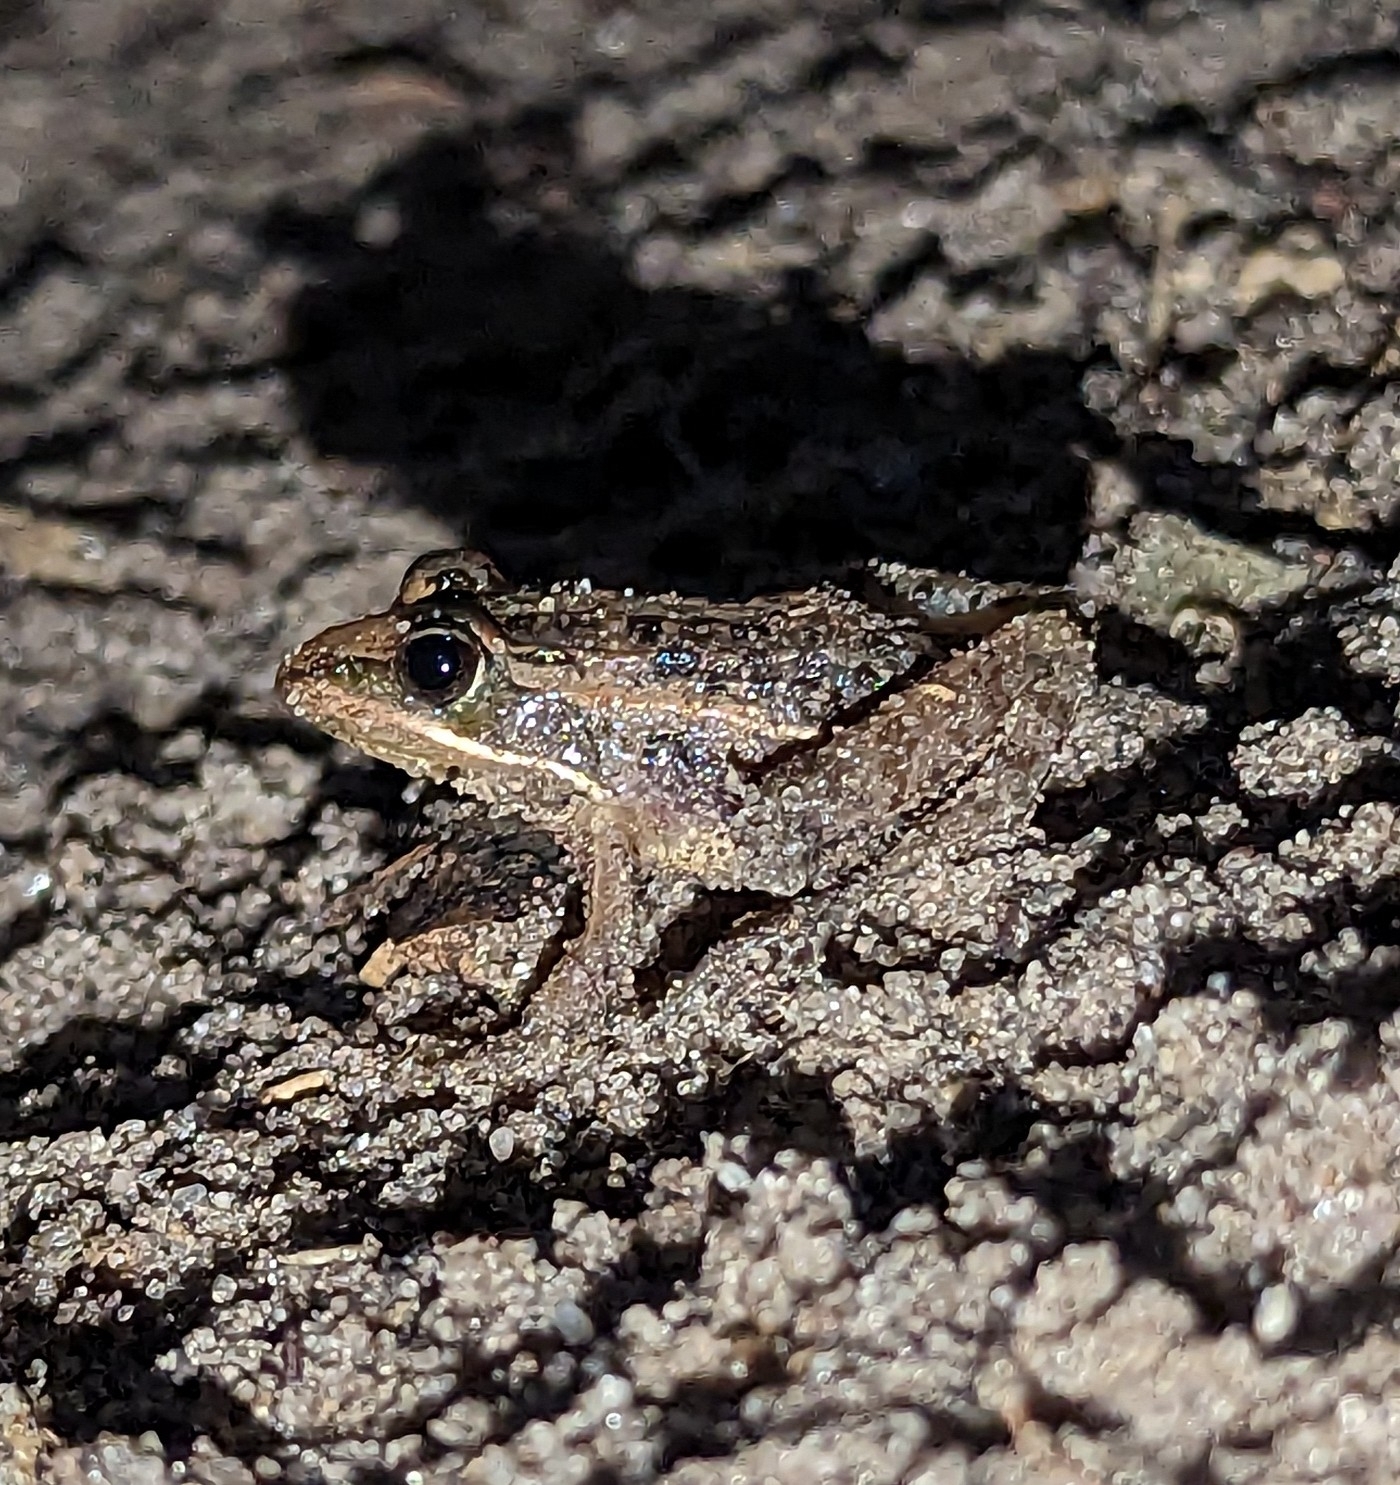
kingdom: Animalia
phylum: Chordata
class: Amphibia
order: Anura
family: Ptychadenidae
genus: Ptychadena
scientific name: Ptychadena mossambica
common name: Mozambique ridged frog
